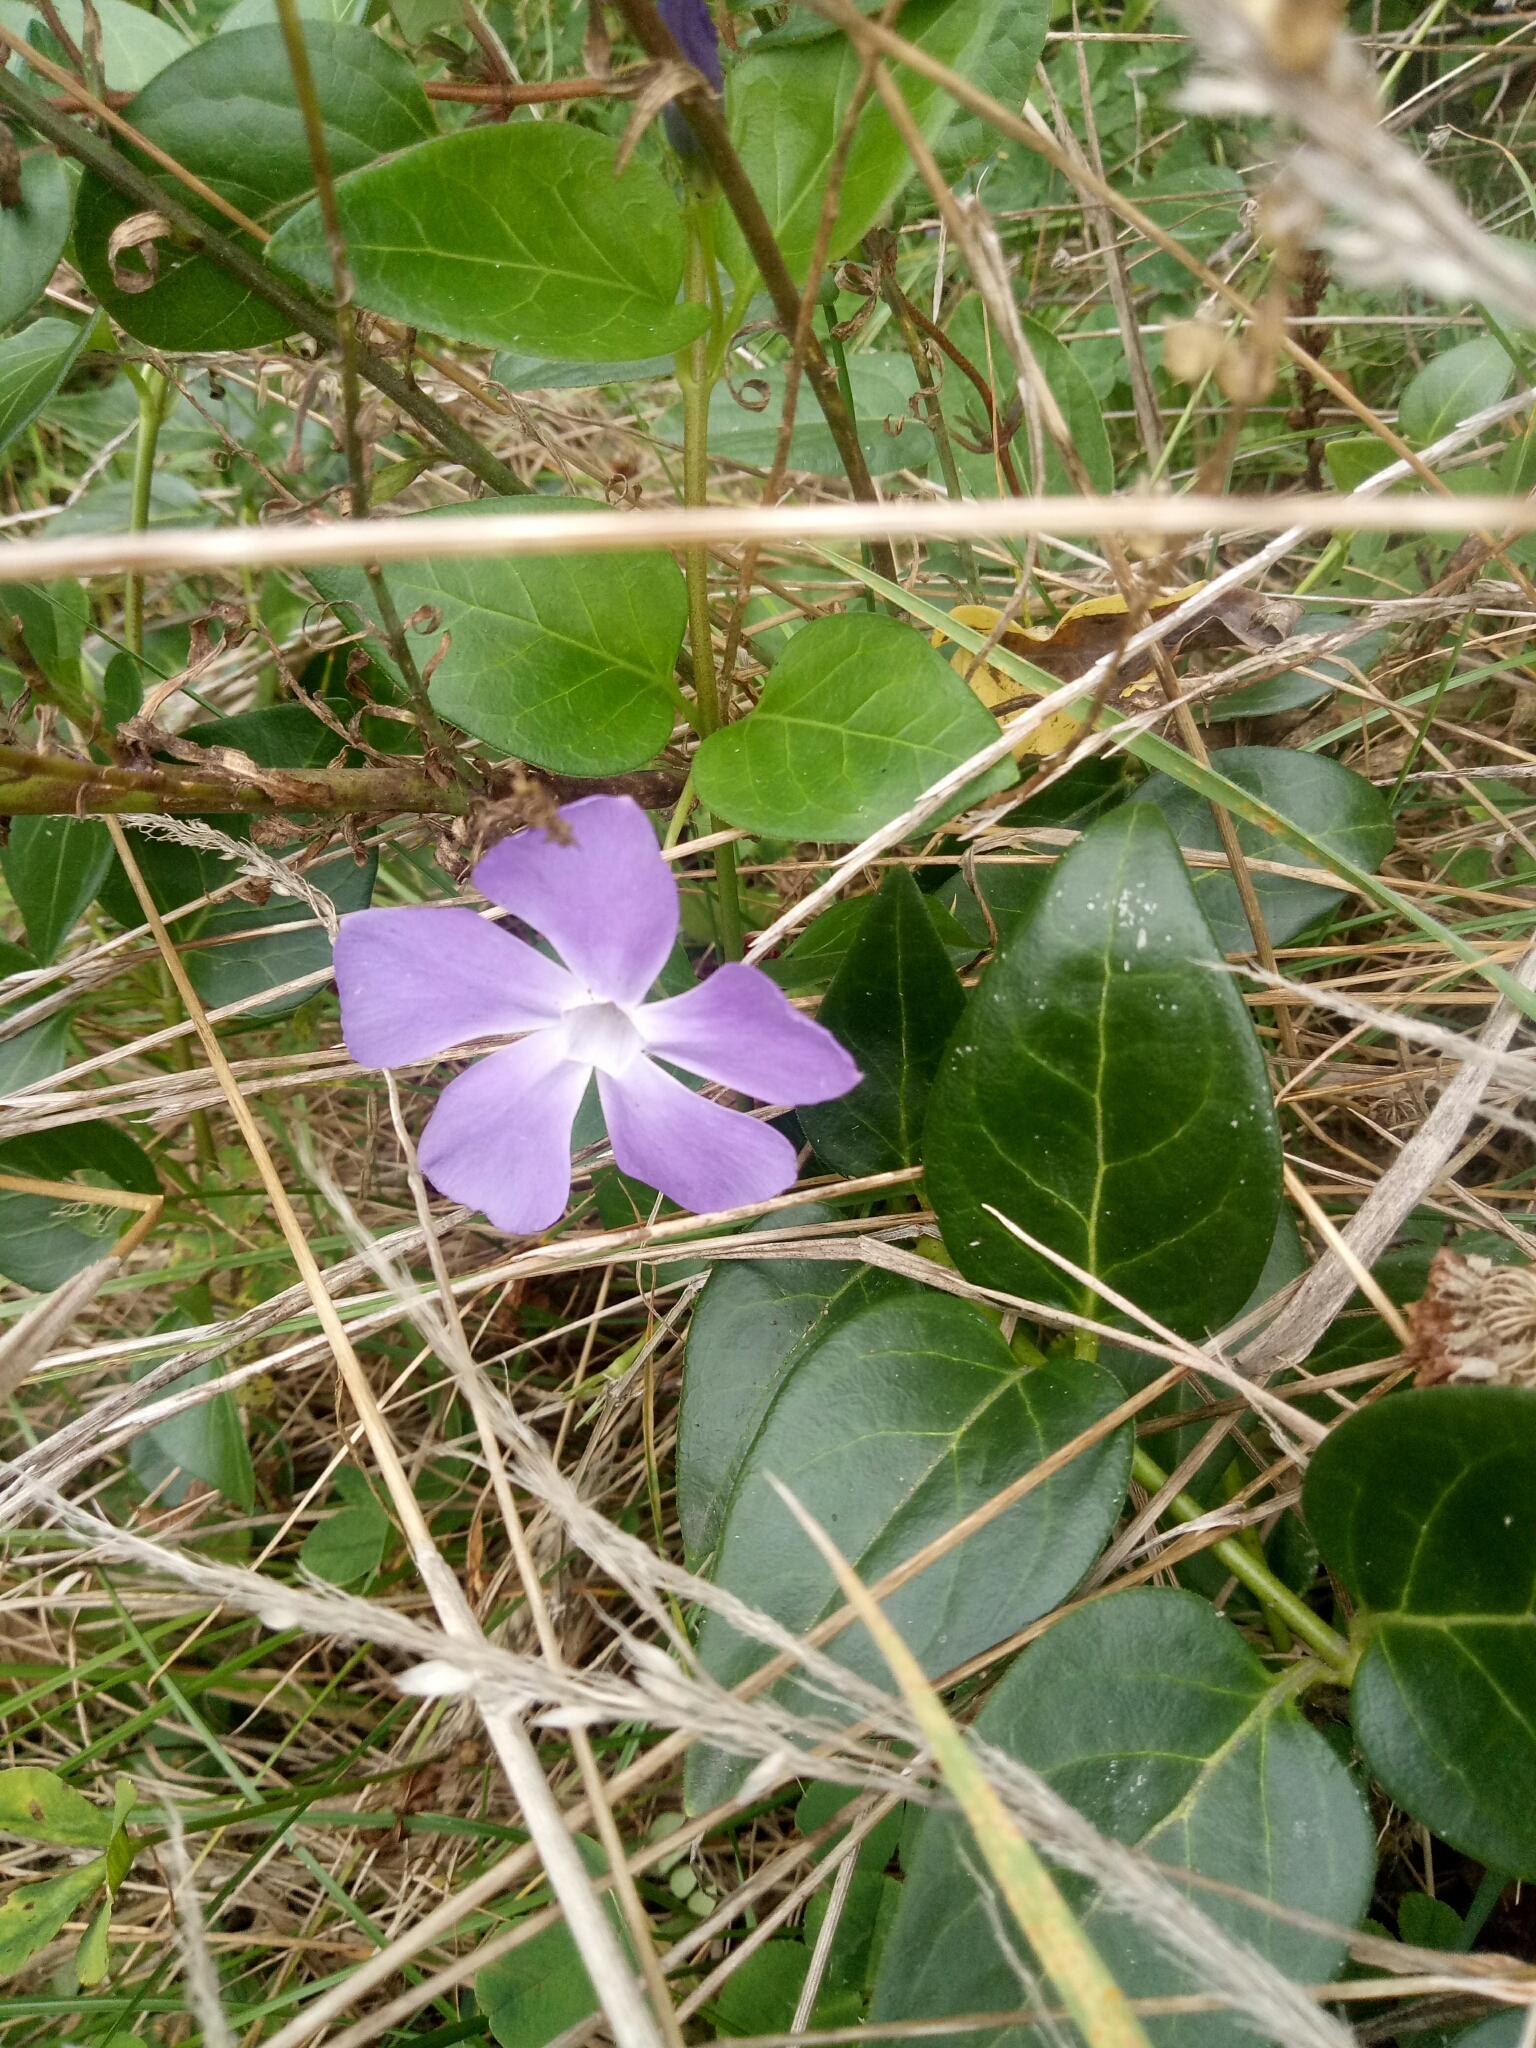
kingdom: Plantae
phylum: Tracheophyta
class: Magnoliopsida
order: Gentianales
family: Apocynaceae
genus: Vinca
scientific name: Vinca major
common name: Greater periwinkle
